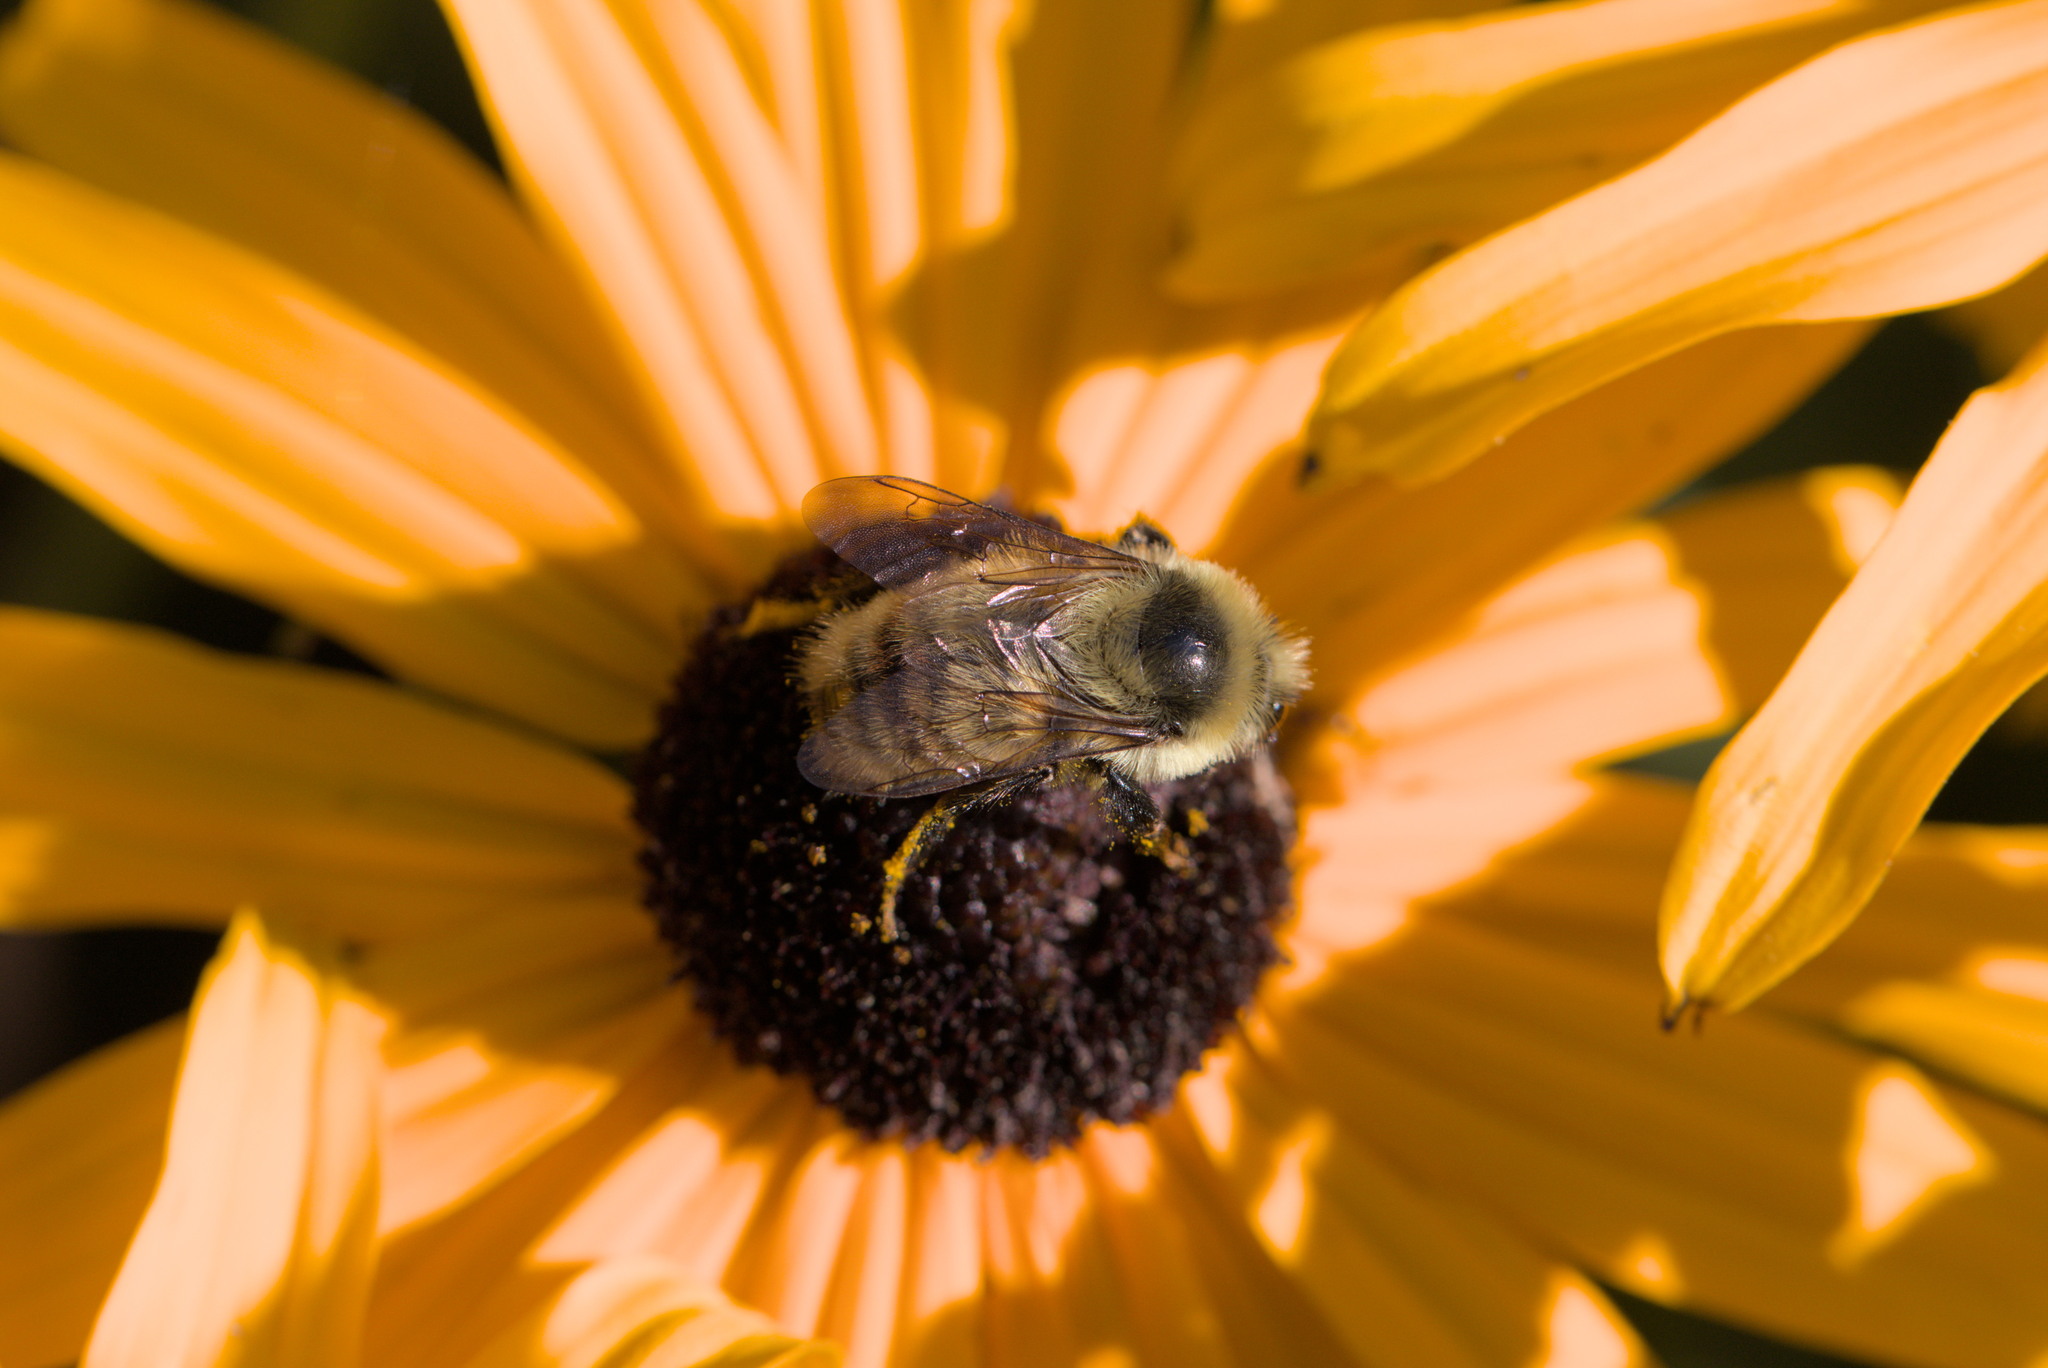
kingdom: Animalia
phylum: Arthropoda
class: Insecta
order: Hymenoptera
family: Apidae
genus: Bombus
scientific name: Bombus rufocinctus
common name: Red-belted bumble bee
